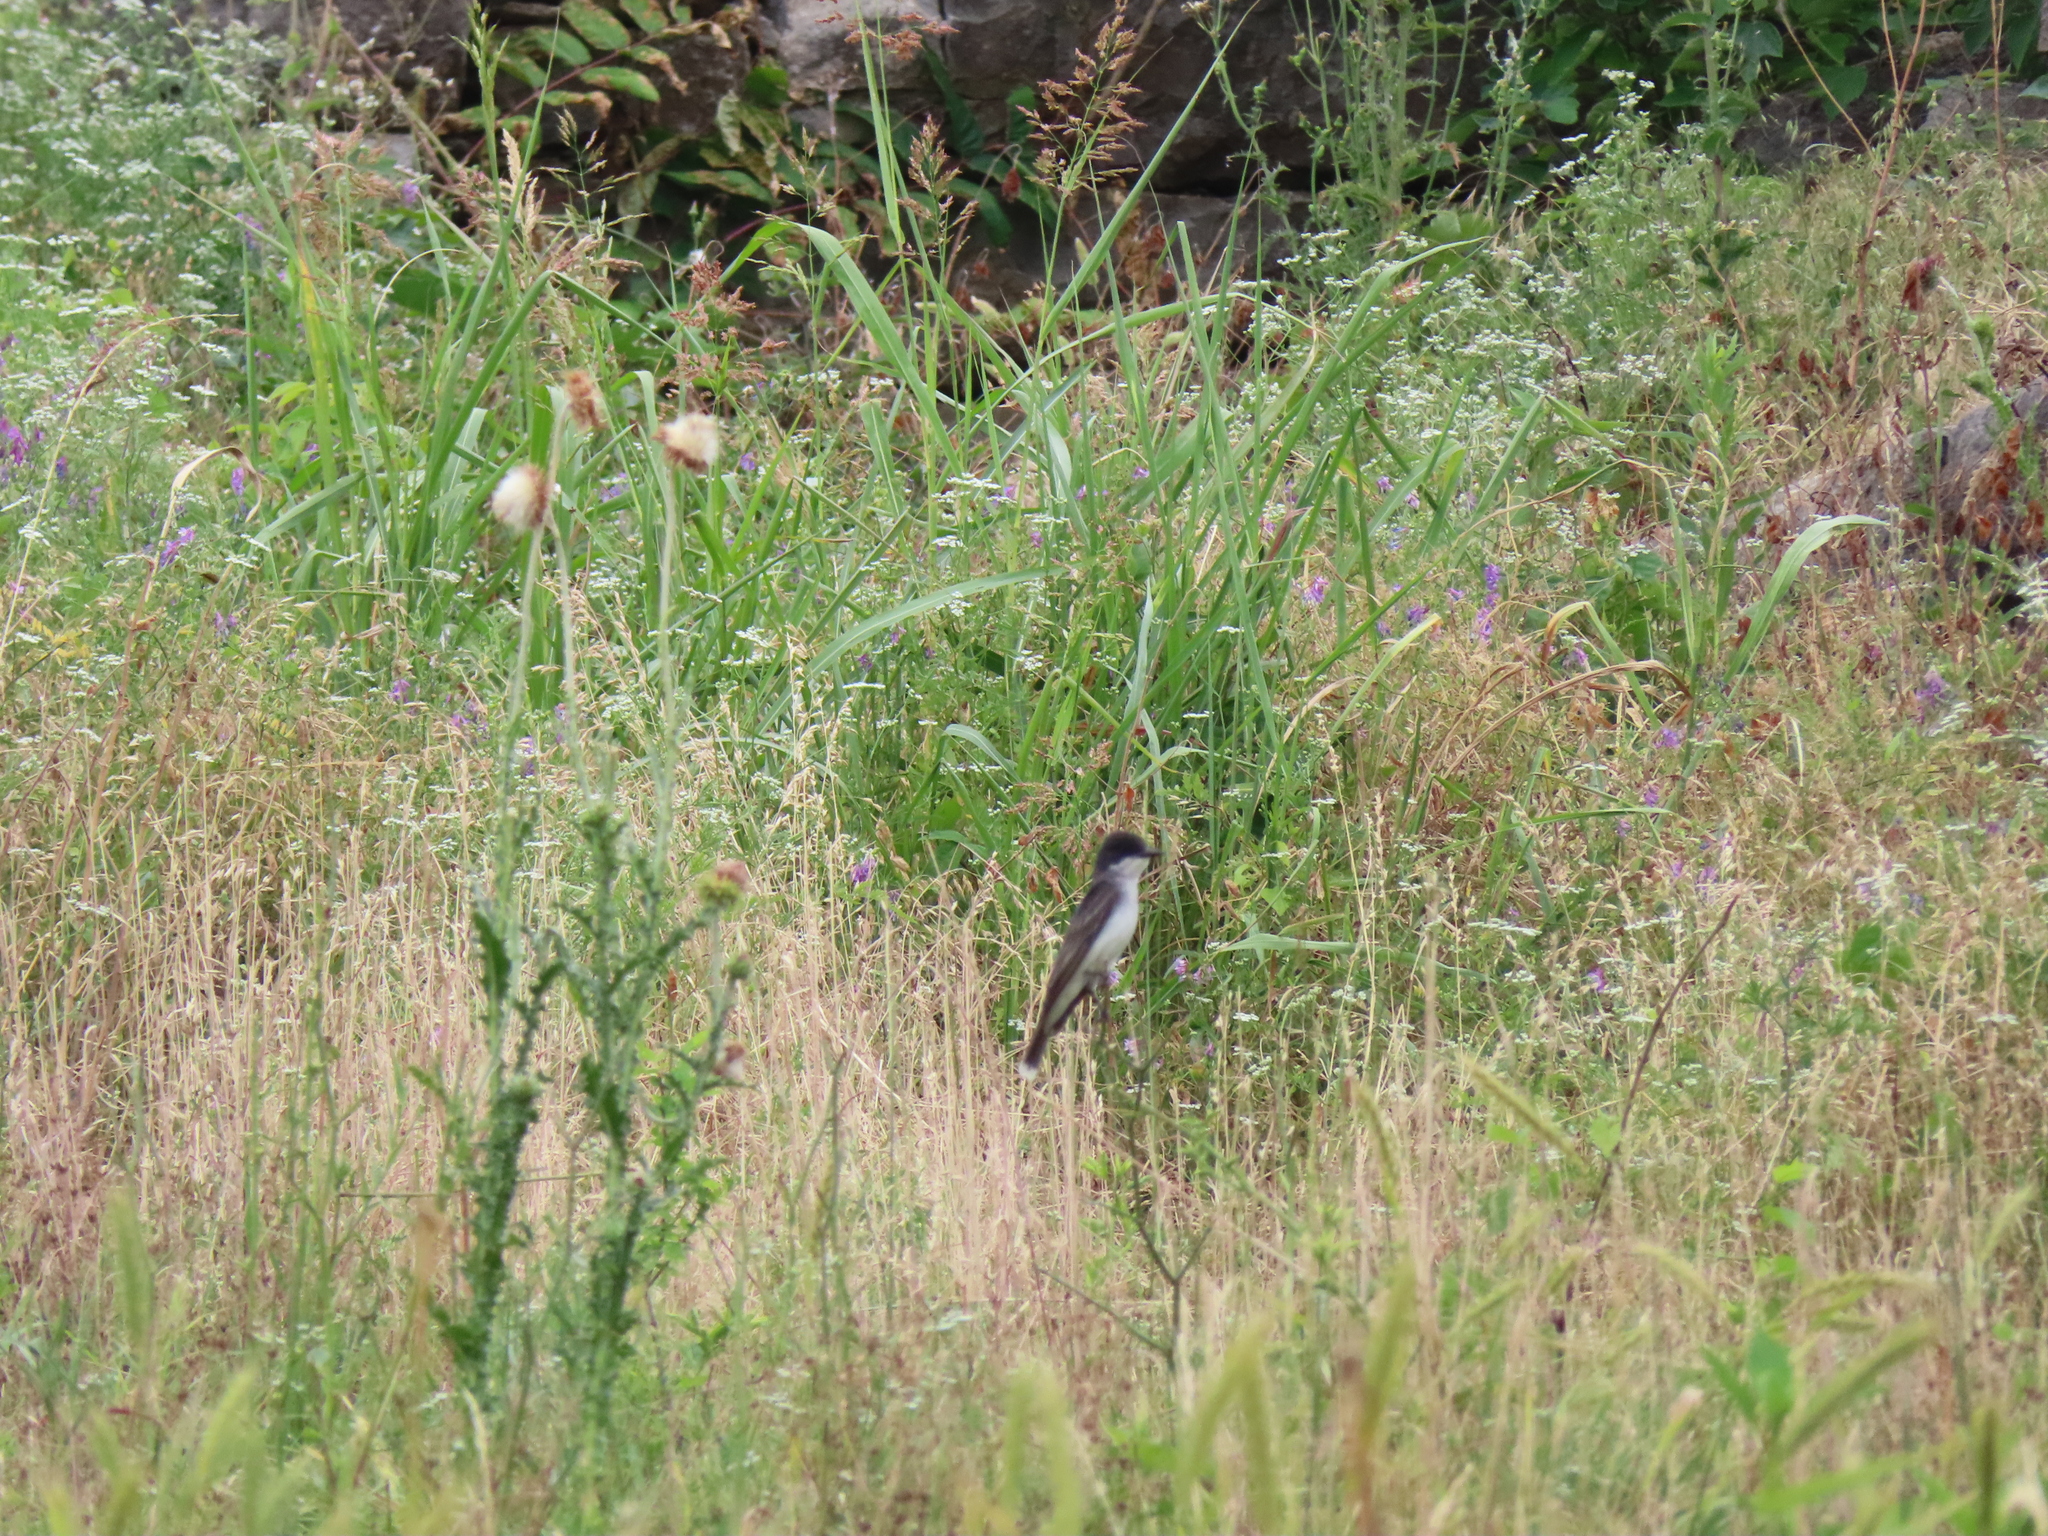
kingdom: Plantae
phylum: Tracheophyta
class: Magnoliopsida
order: Asterales
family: Asteraceae
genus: Carduus
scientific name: Carduus nutans
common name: Musk thistle
